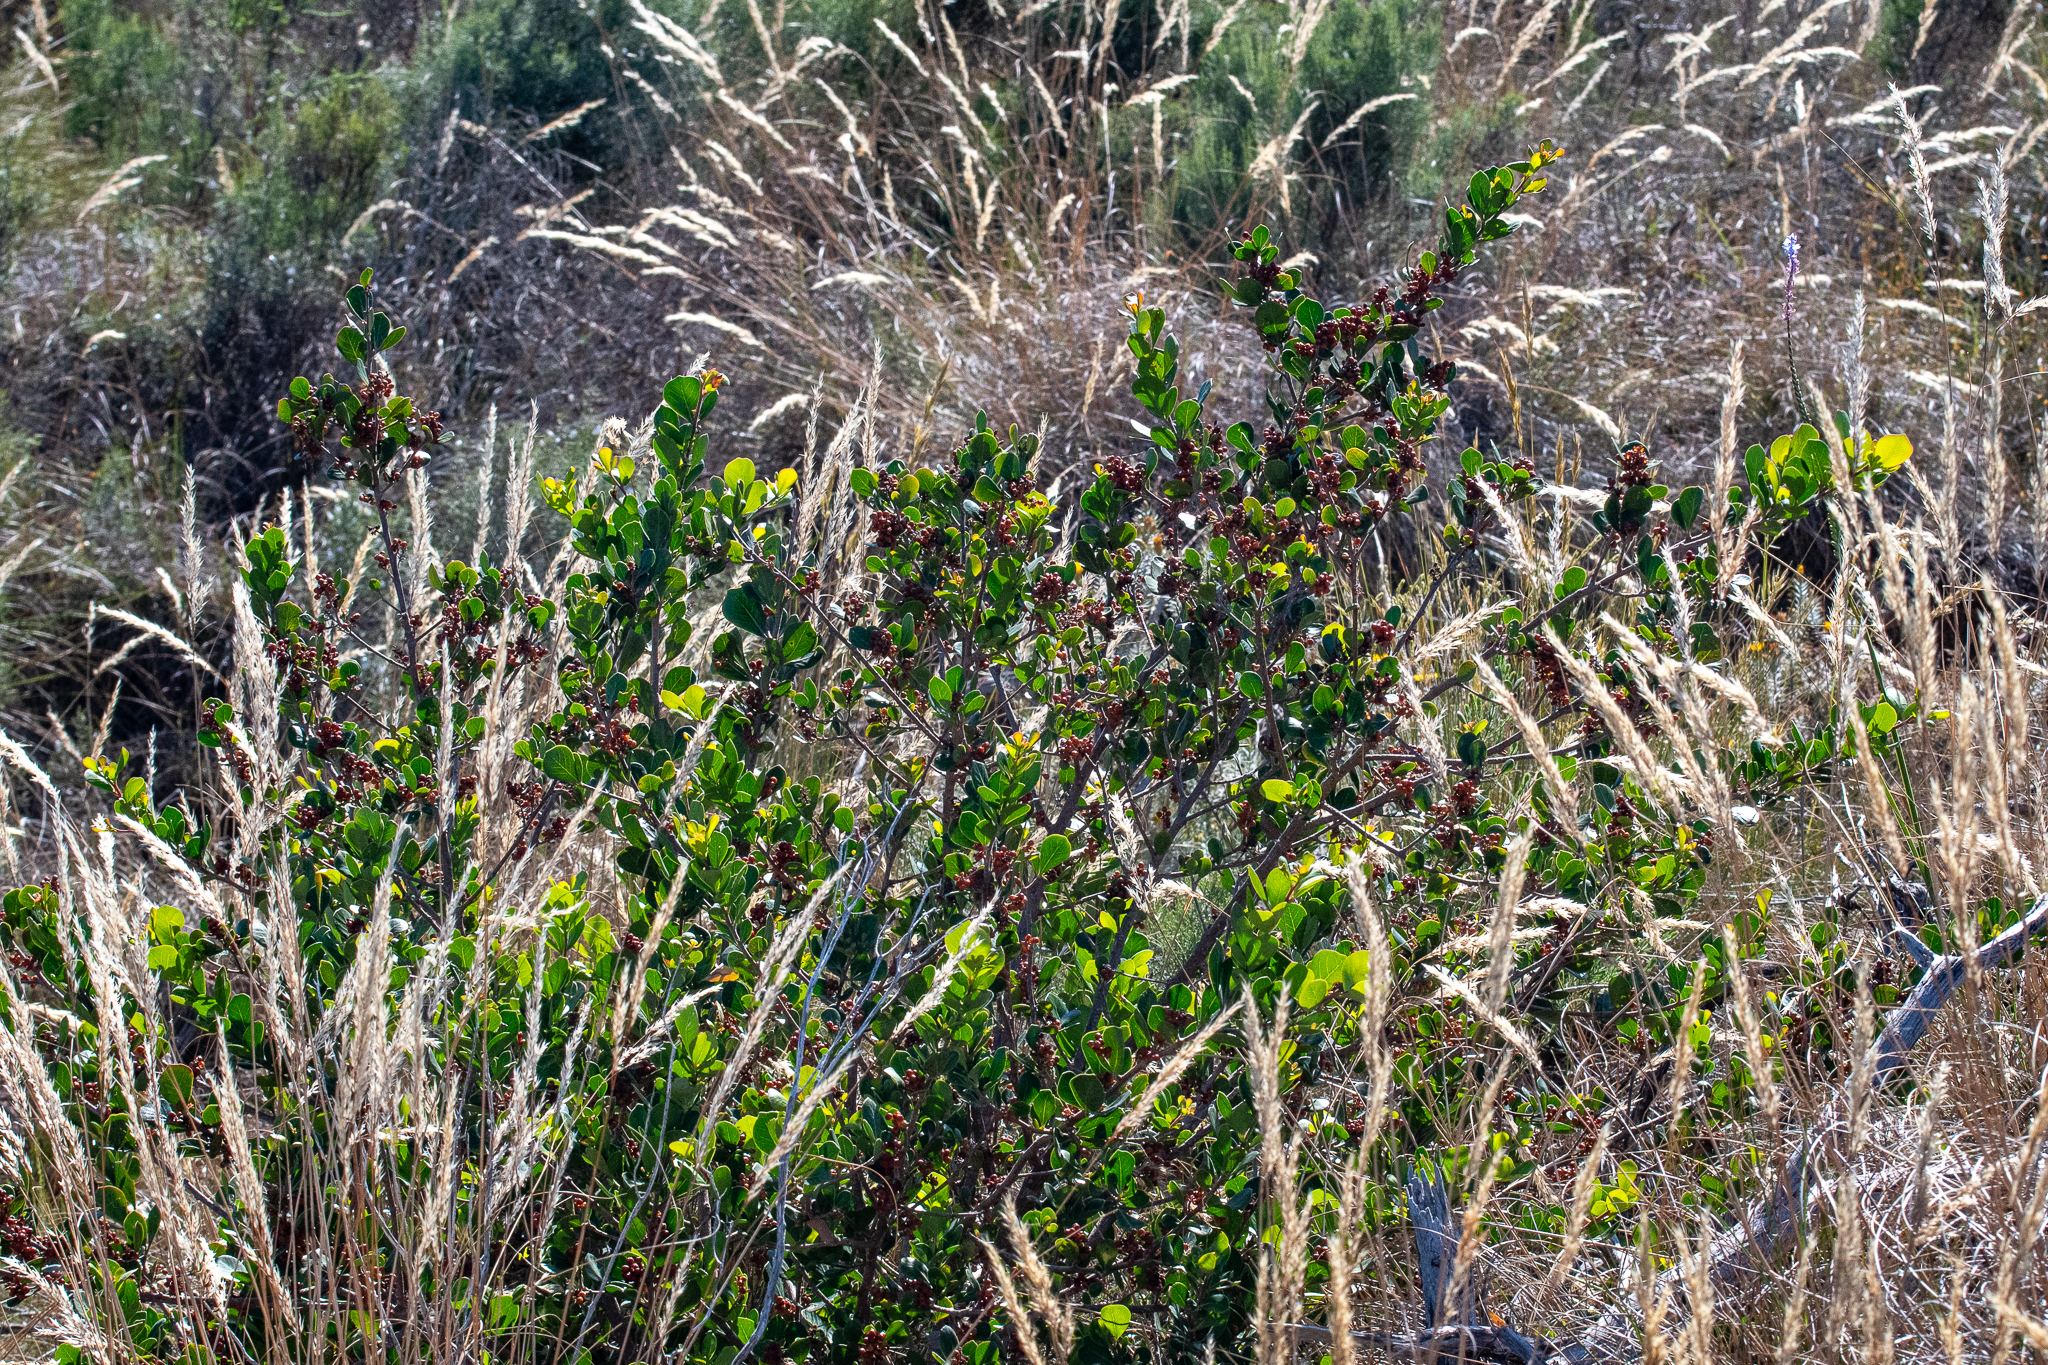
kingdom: Plantae
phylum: Tracheophyta
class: Magnoliopsida
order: Sapindales
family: Anacardiaceae
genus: Searsia
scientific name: Searsia lucida
